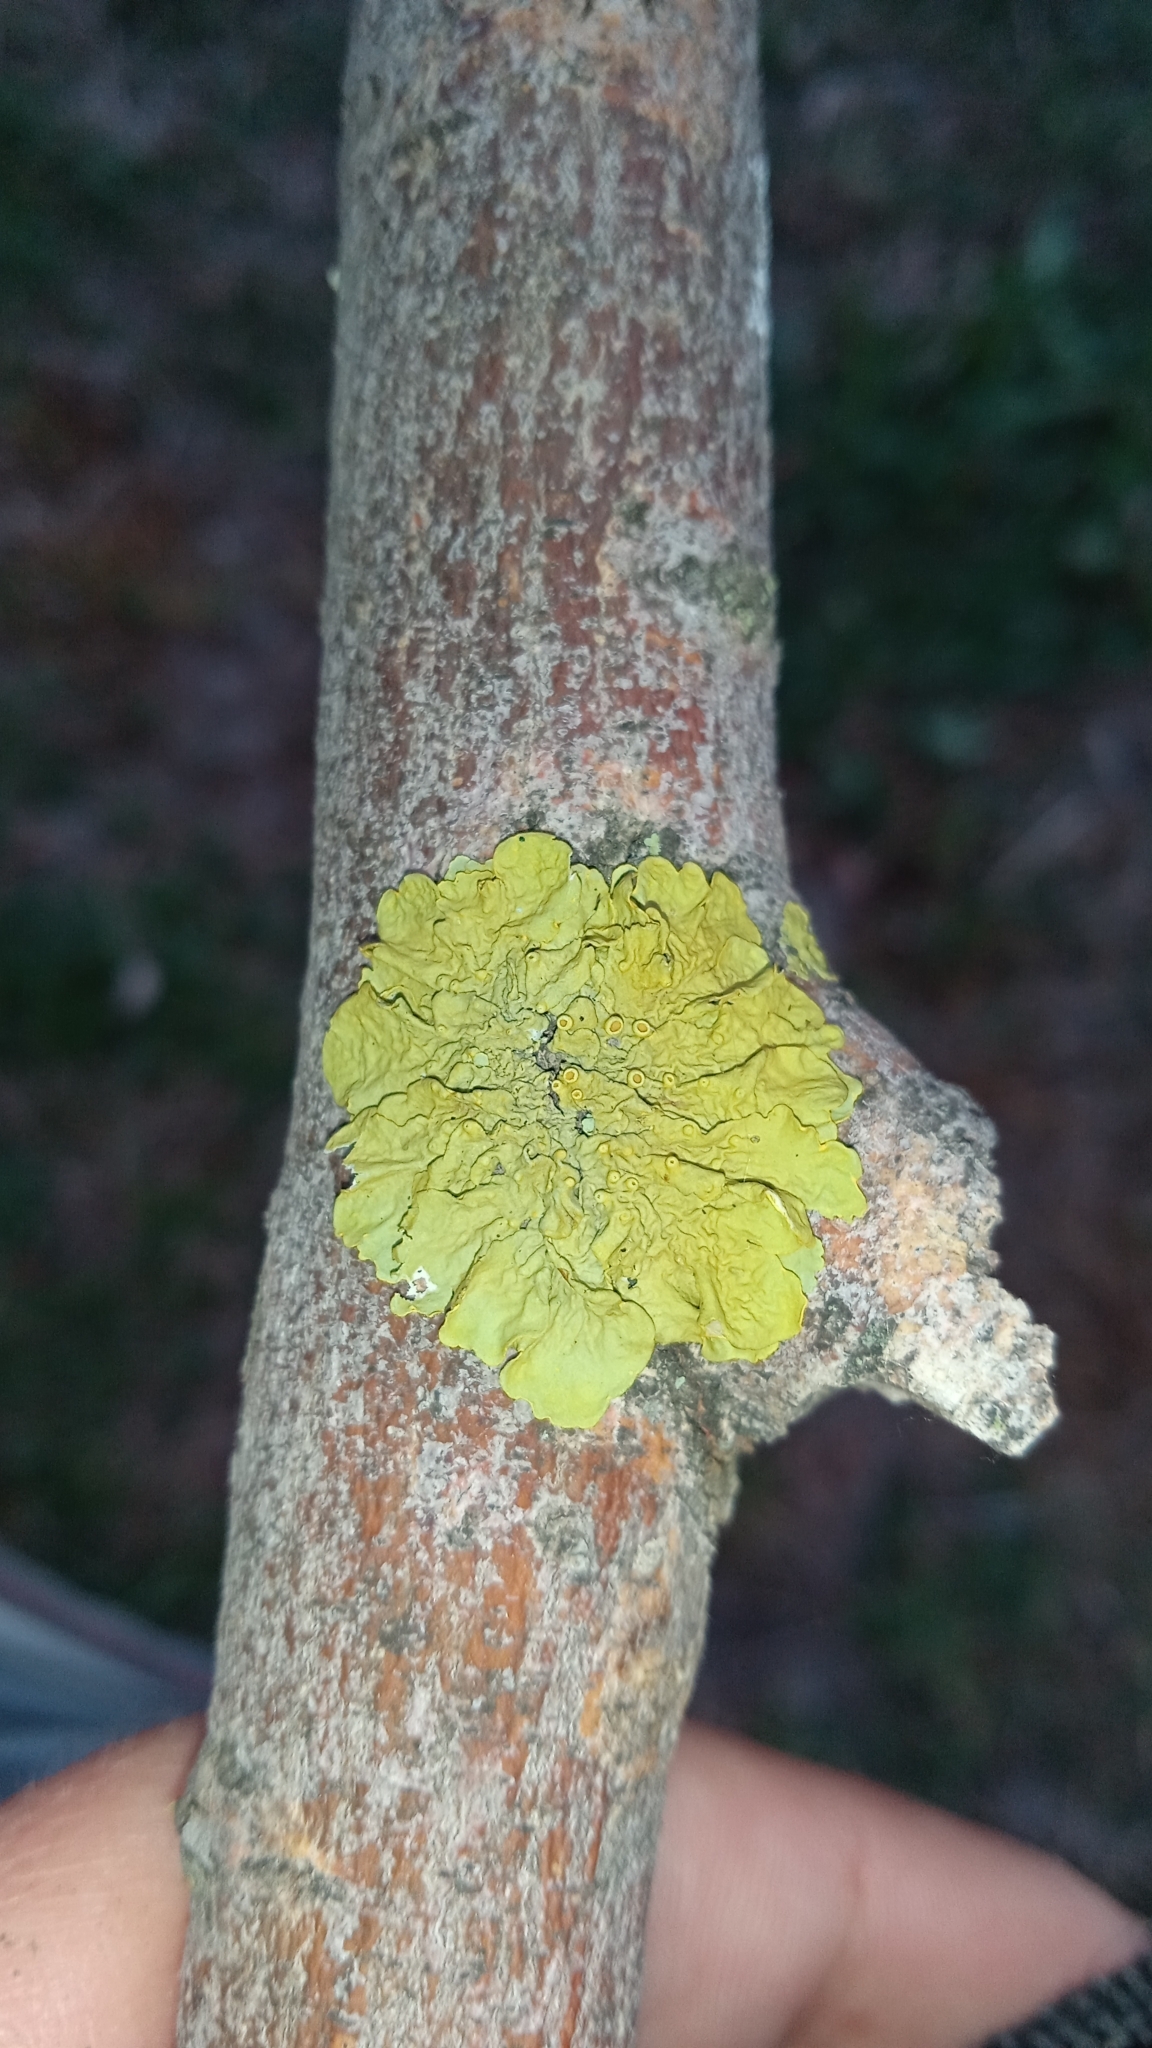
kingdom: Fungi
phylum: Ascomycota
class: Lecanoromycetes
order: Teloschistales
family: Teloschistaceae
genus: Xanthoria
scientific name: Xanthoria parietina
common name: Common orange lichen
